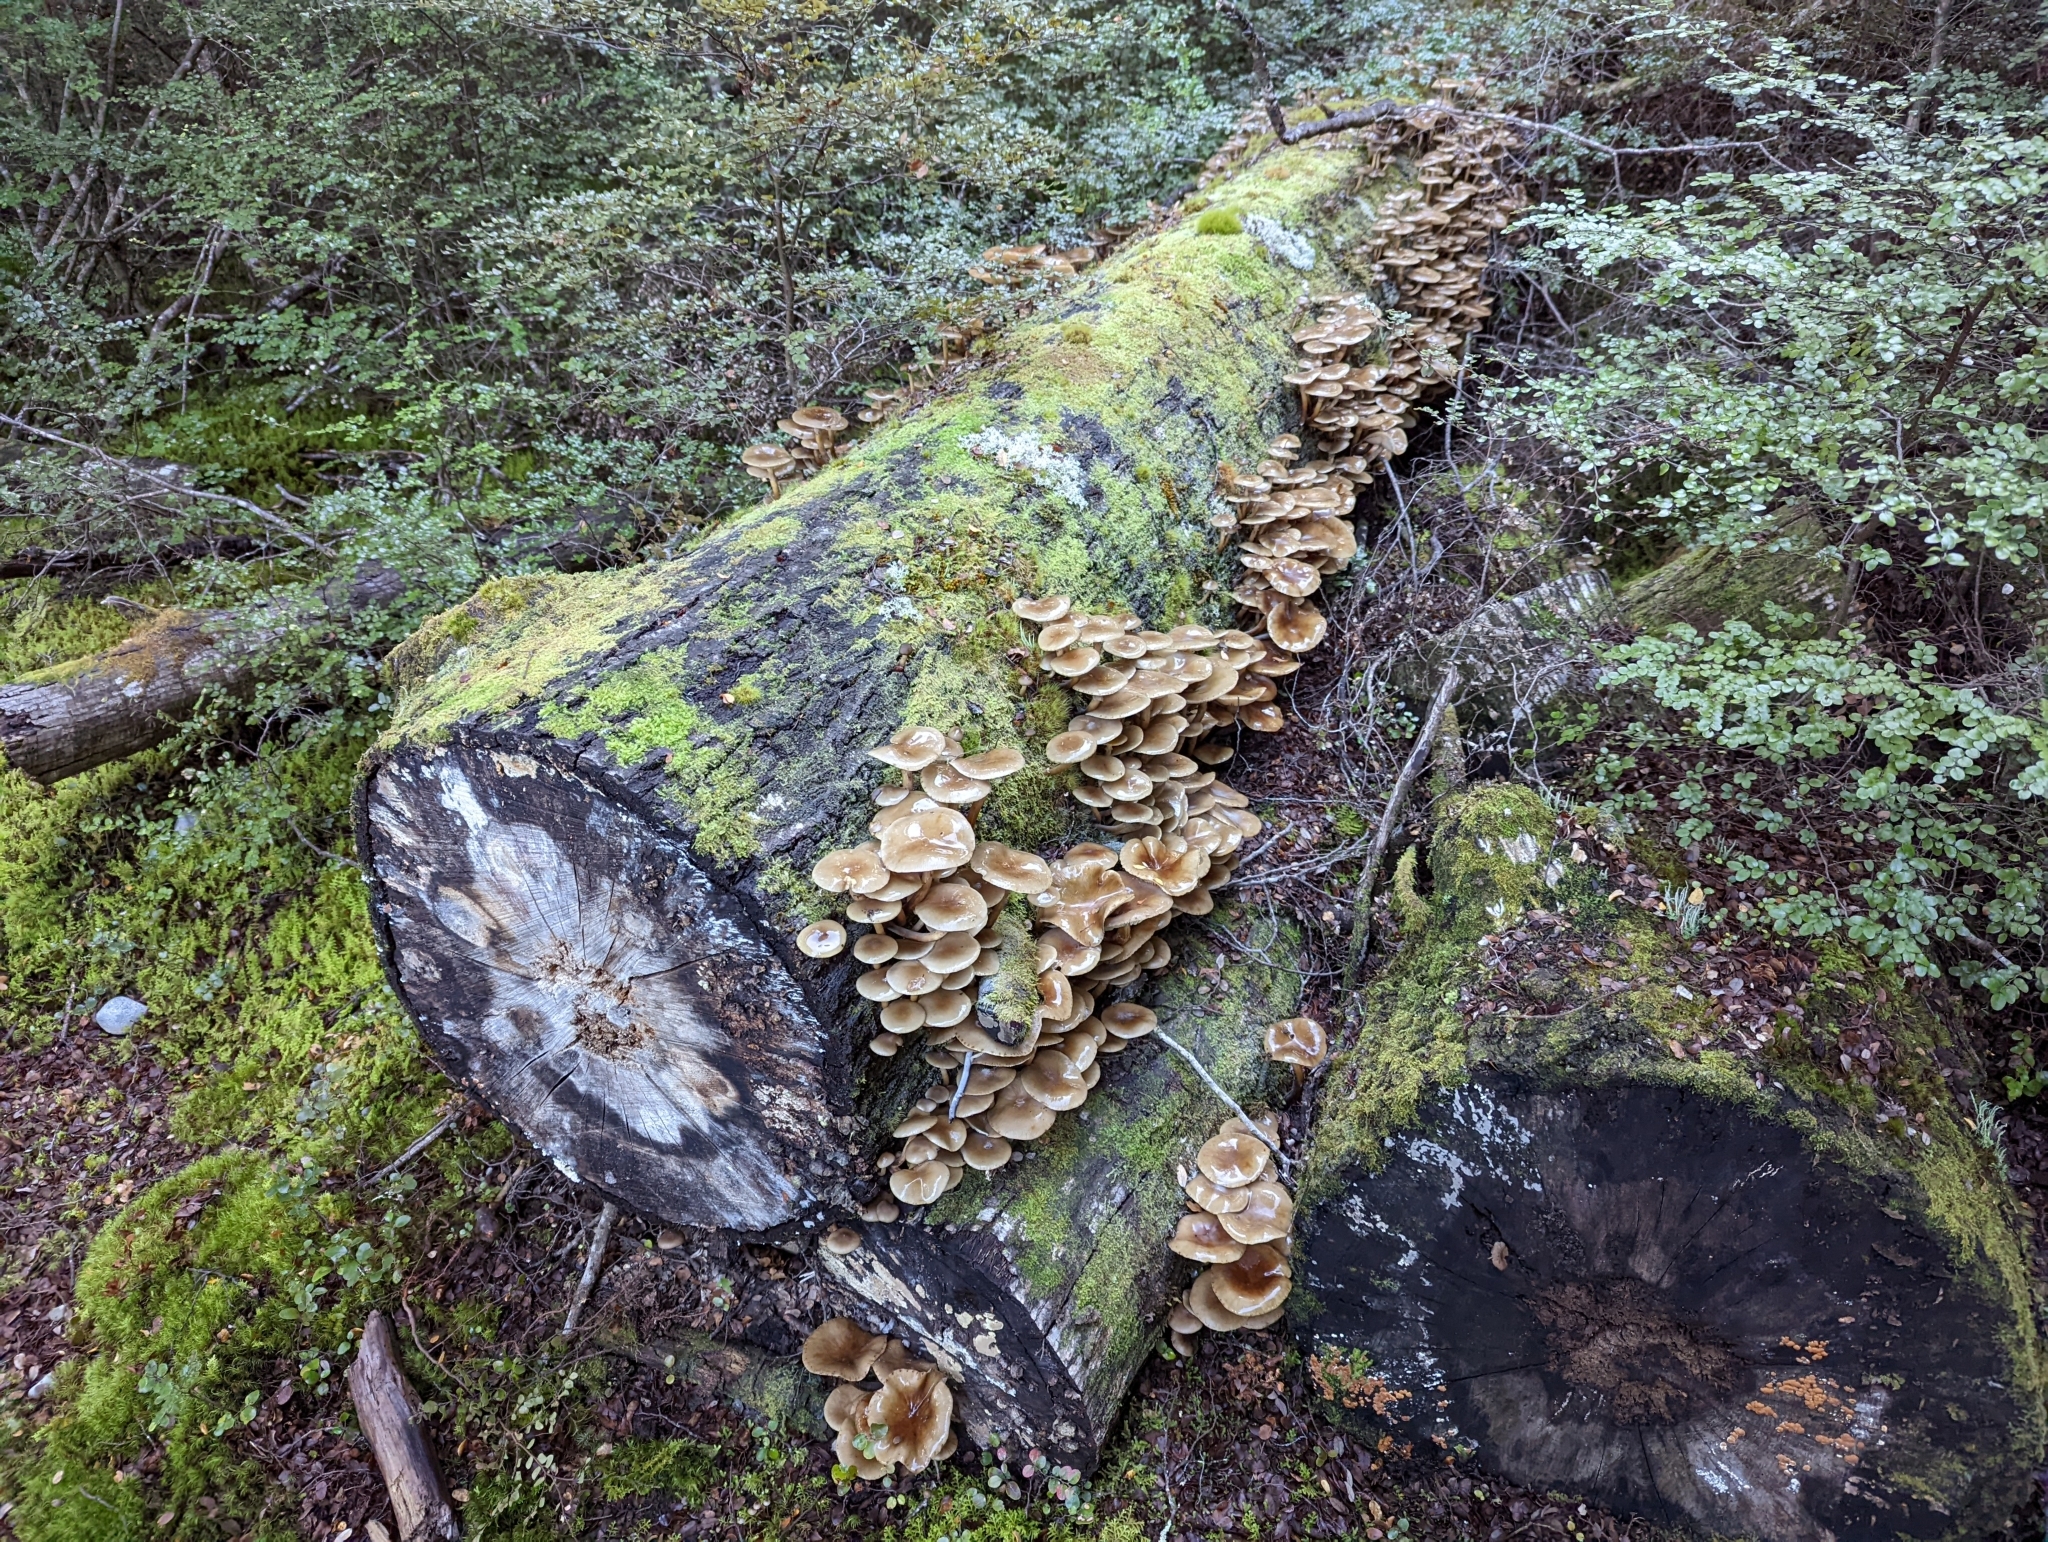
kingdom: Fungi
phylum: Basidiomycota
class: Agaricomycetes
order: Agaricales
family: Physalacriaceae
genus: Armillaria
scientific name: Armillaria novae-zelandiae
